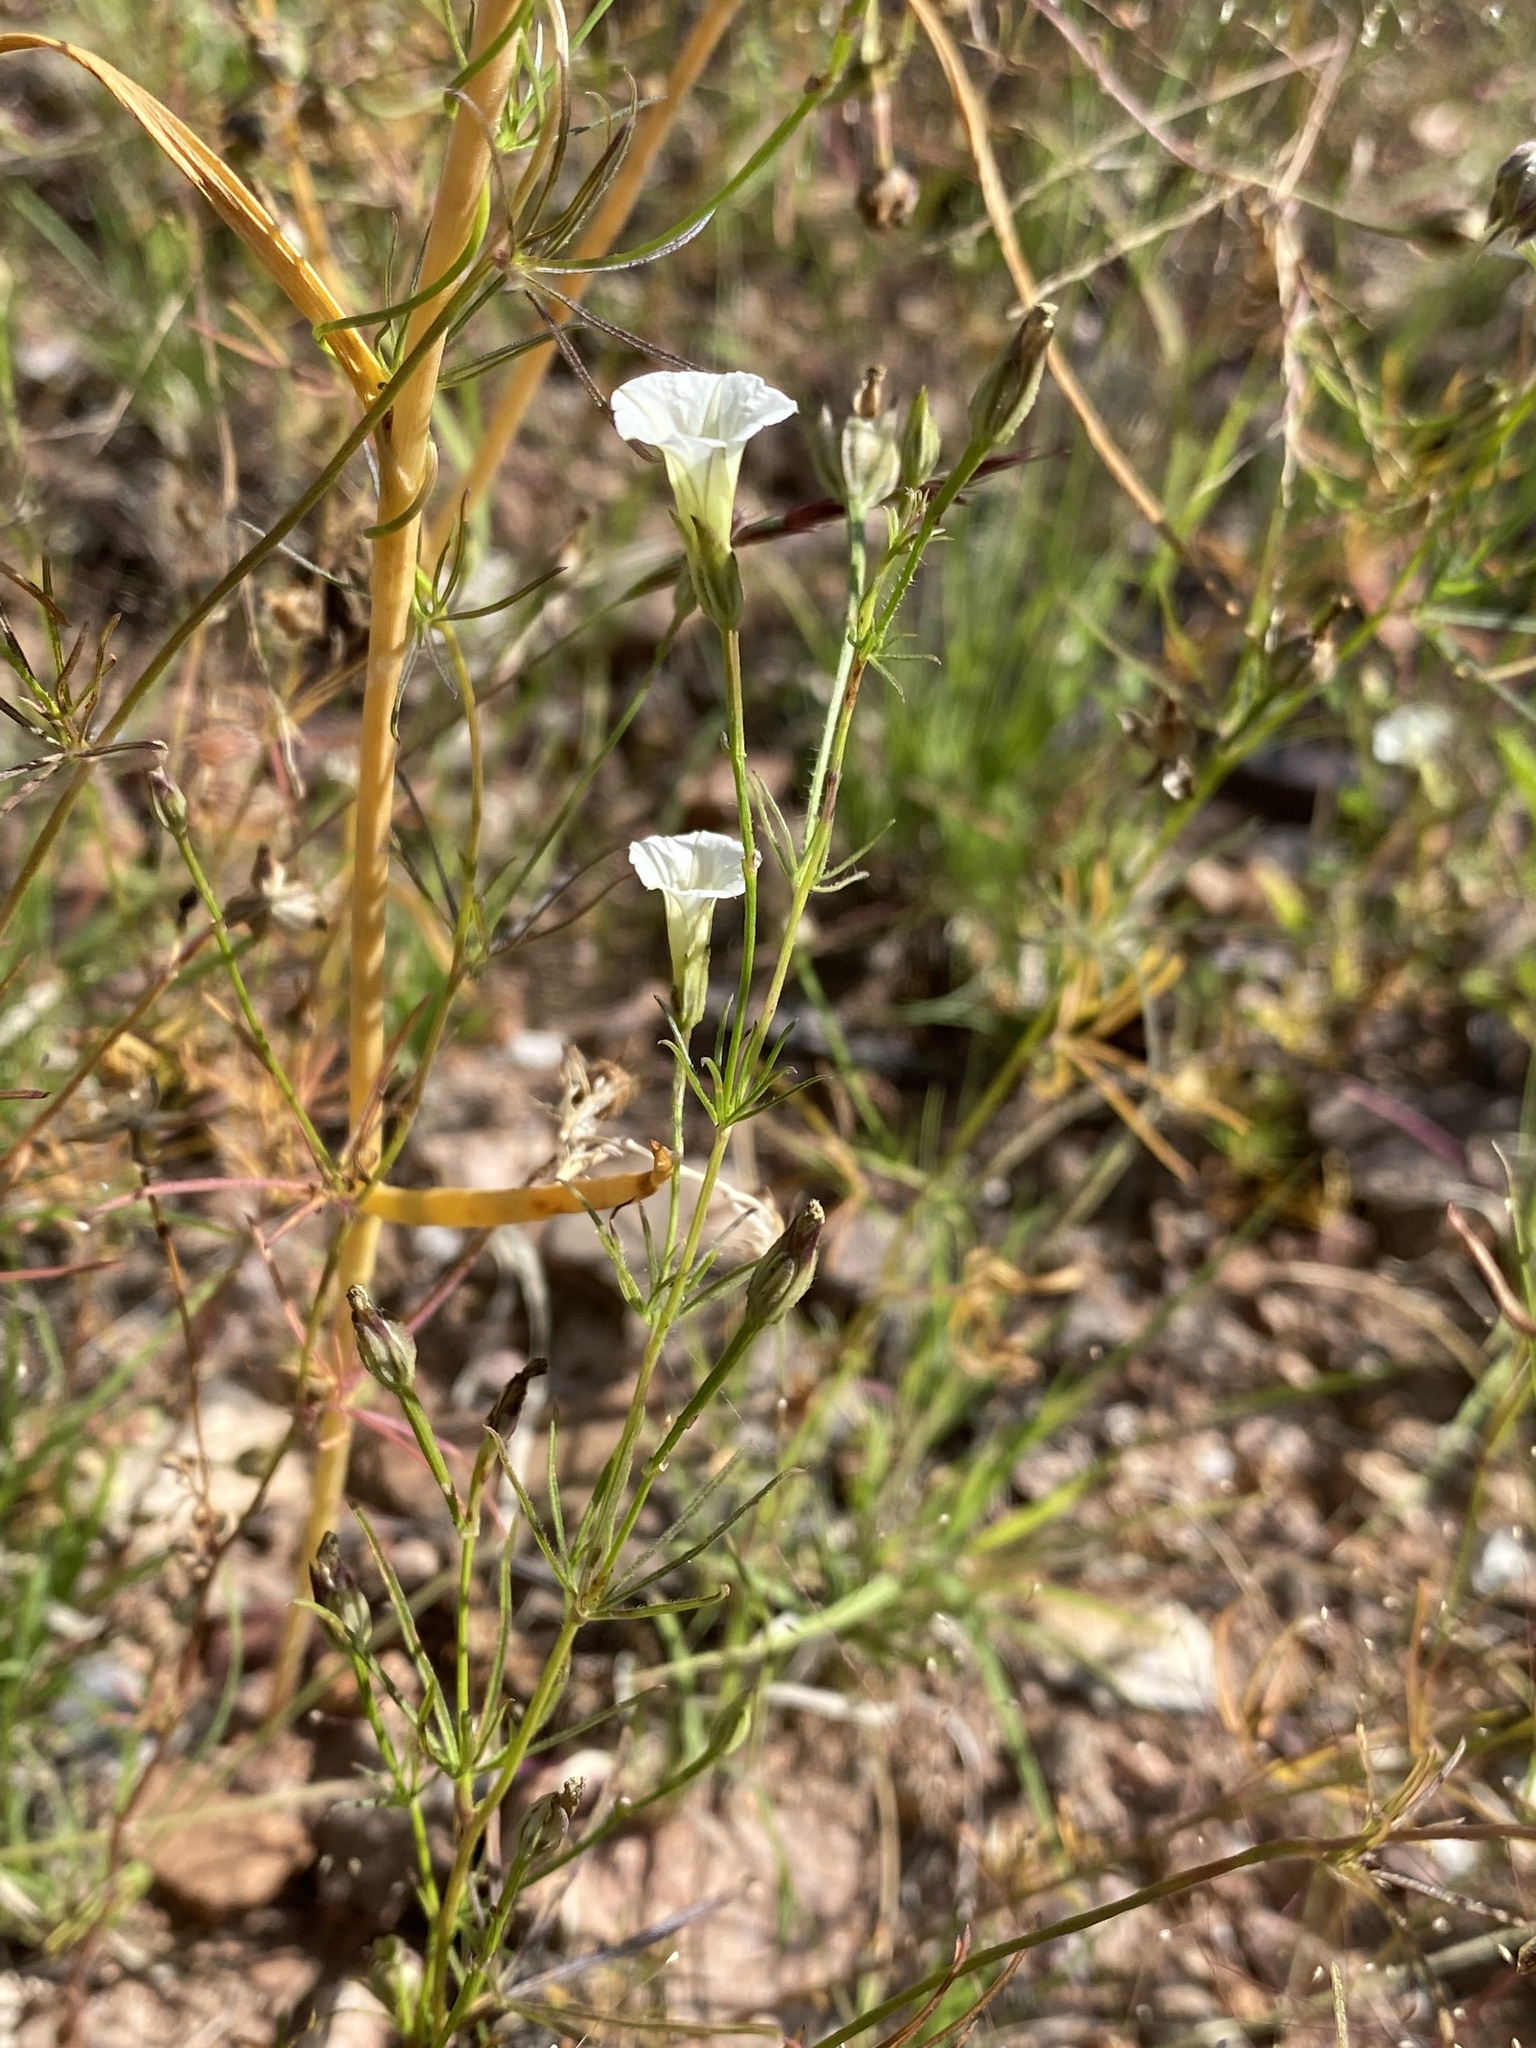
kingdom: Plantae
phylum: Tracheophyta
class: Magnoliopsida
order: Solanales
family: Convolvulaceae
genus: Ipomoea
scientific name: Ipomoea costellata
